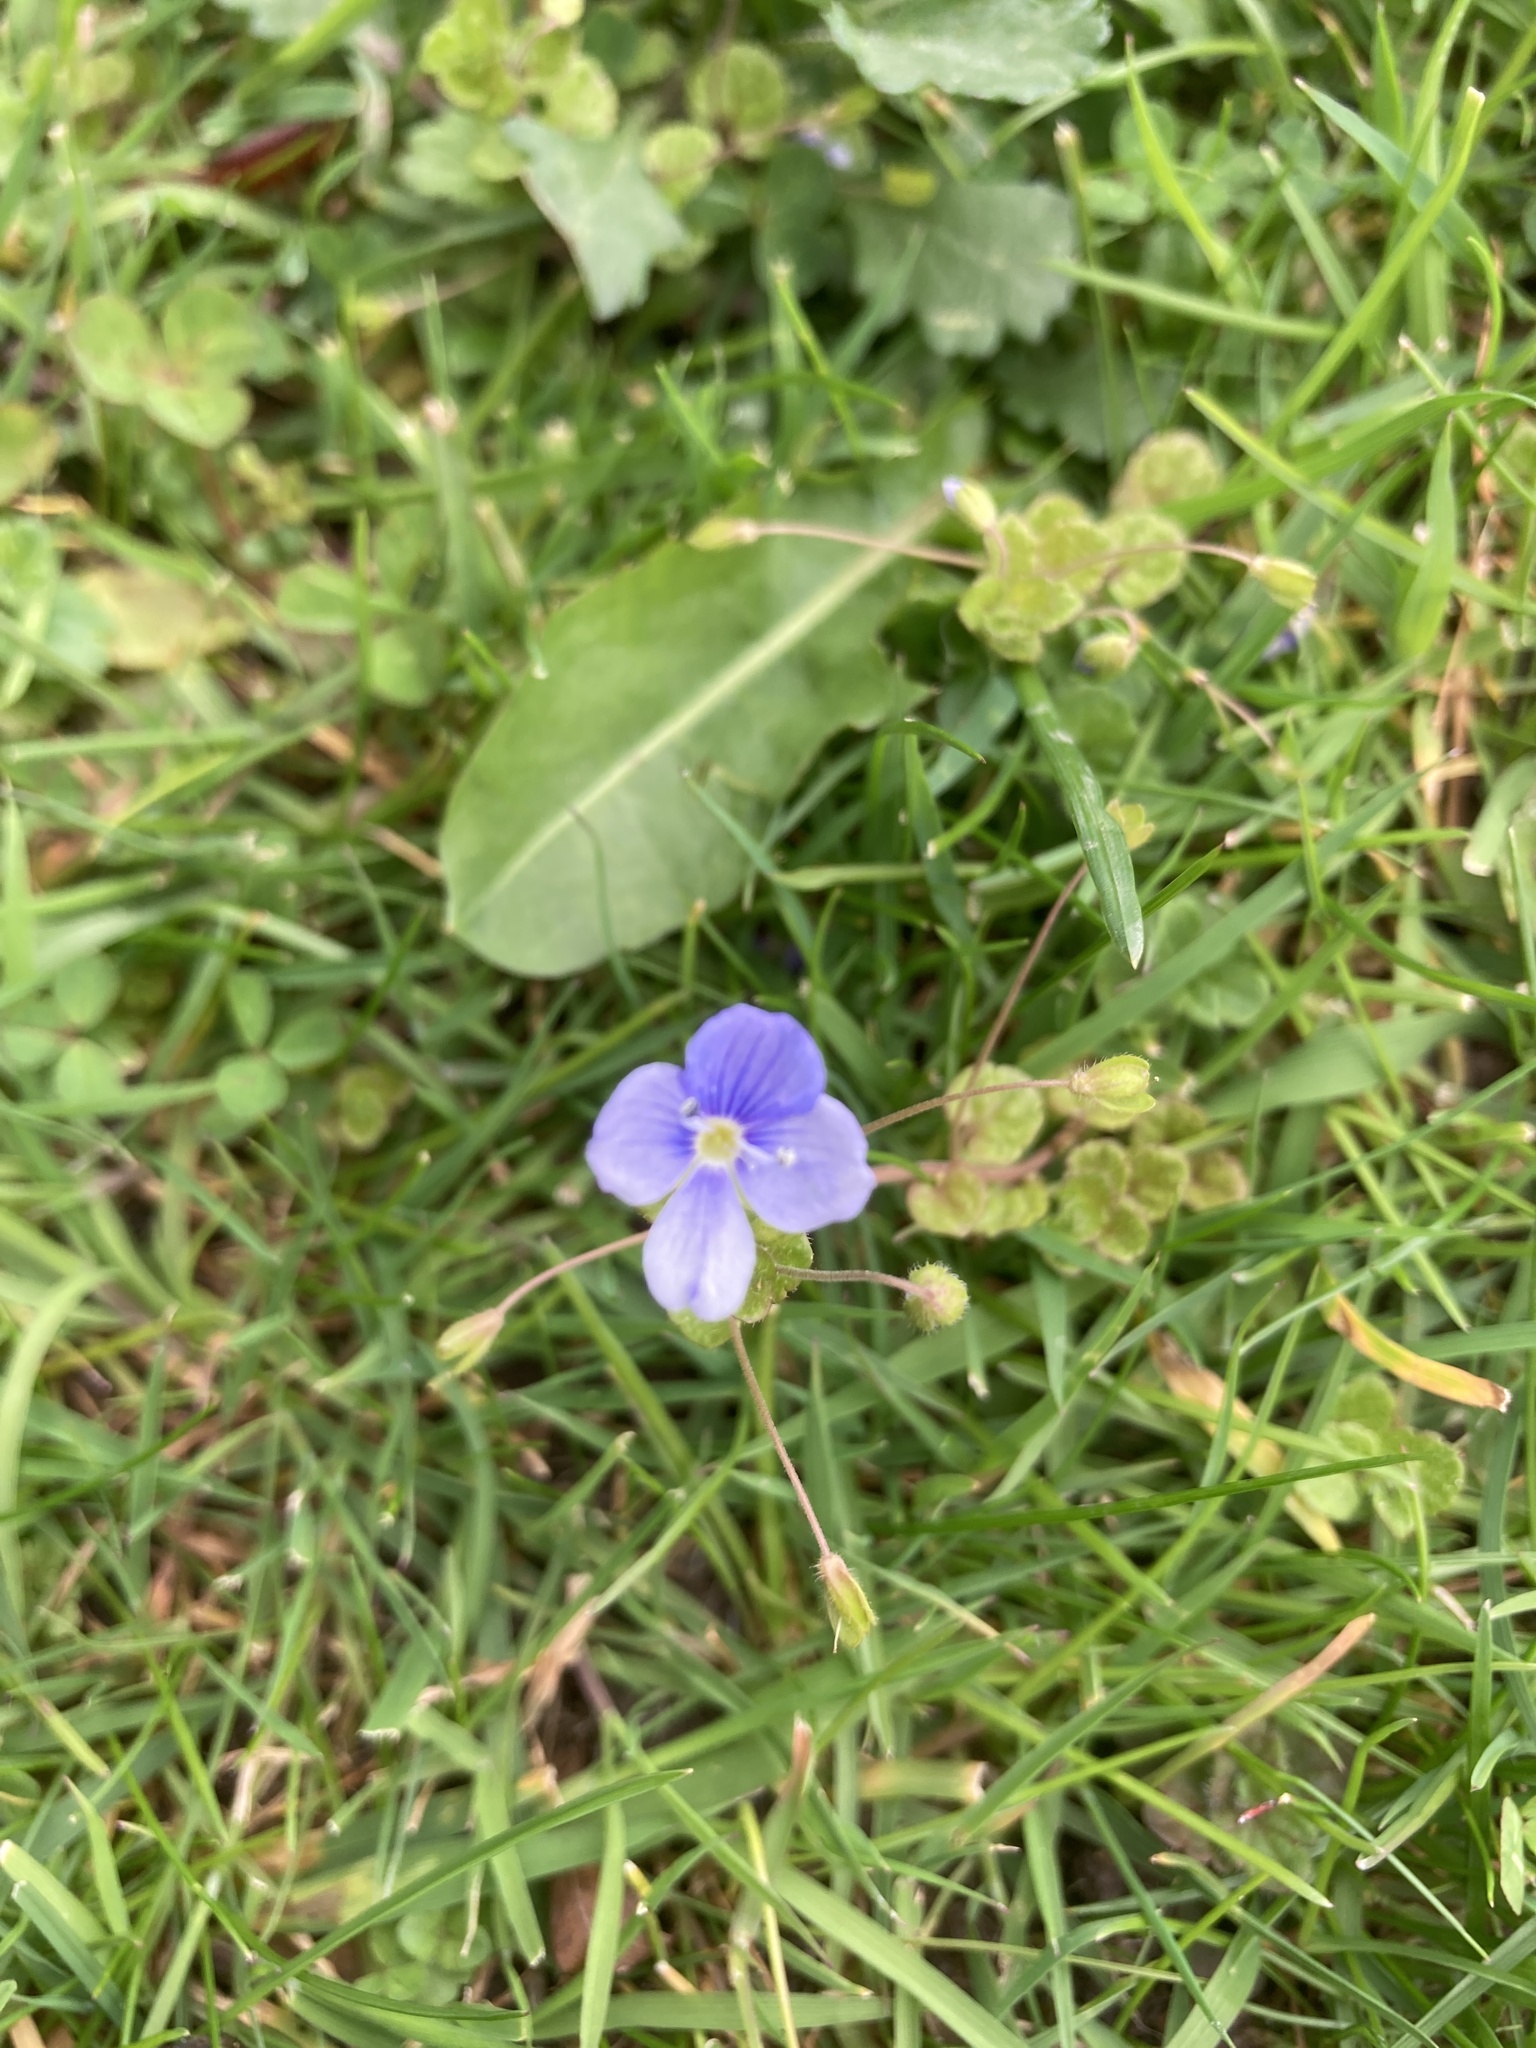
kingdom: Plantae
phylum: Tracheophyta
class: Magnoliopsida
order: Lamiales
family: Plantaginaceae
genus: Veronica
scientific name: Veronica filiformis
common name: Slender speedwell
